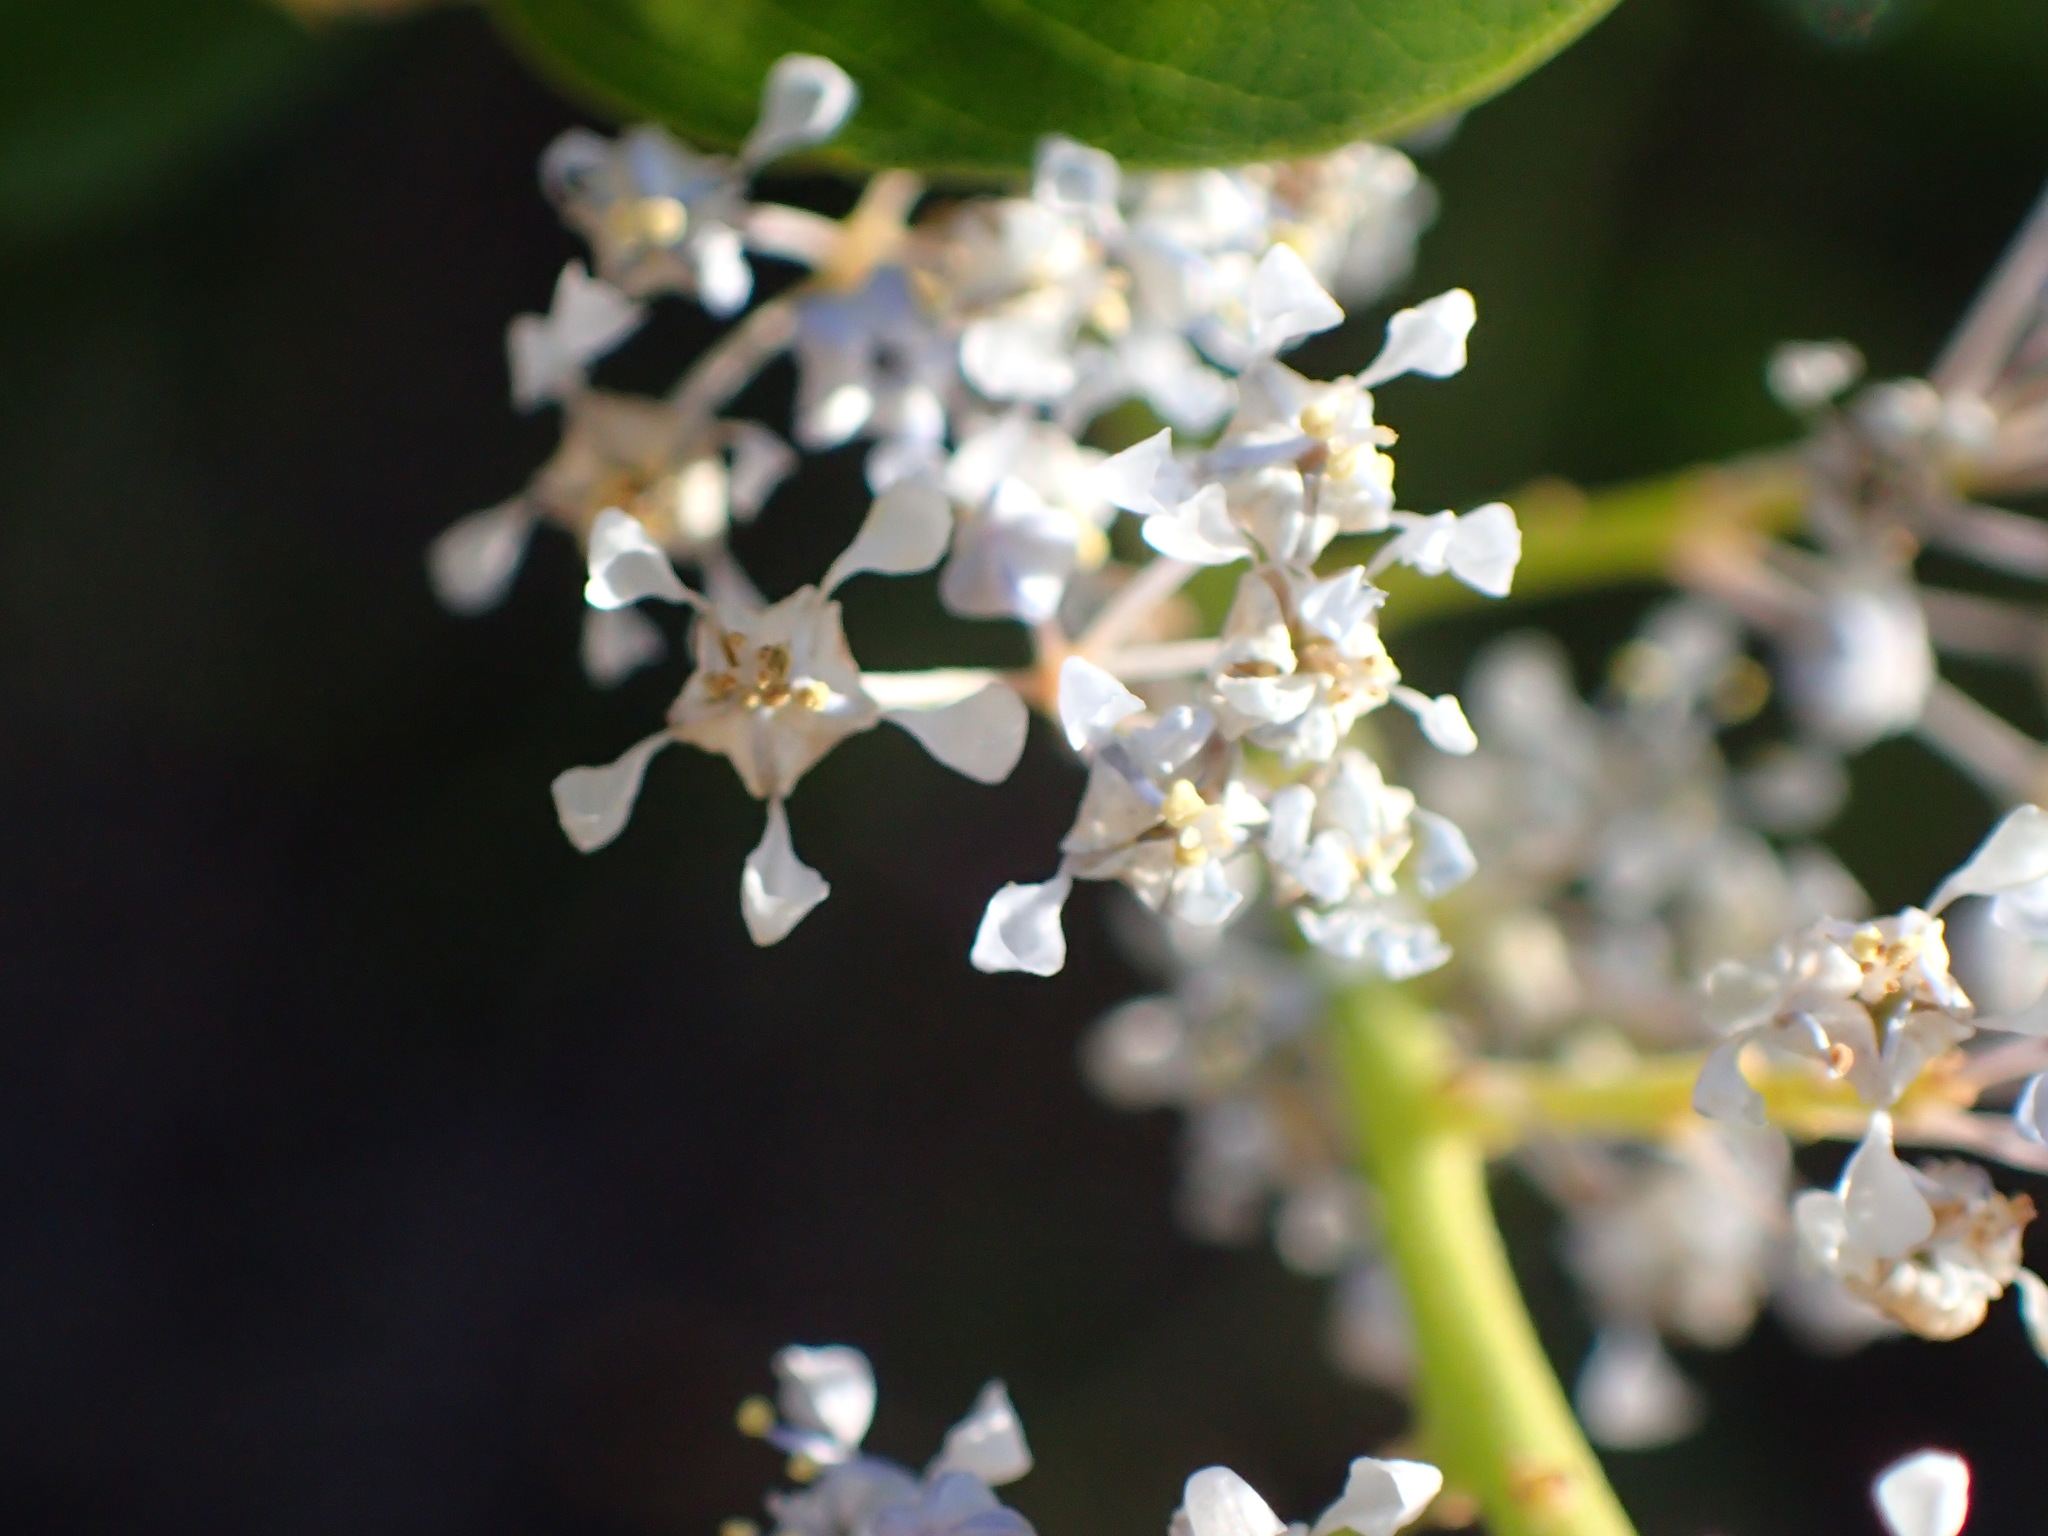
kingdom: Plantae
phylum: Tracheophyta
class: Magnoliopsida
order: Rosales
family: Rhamnaceae
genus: Ceanothus
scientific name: Ceanothus spinosus
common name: Greenbark whitethorn
